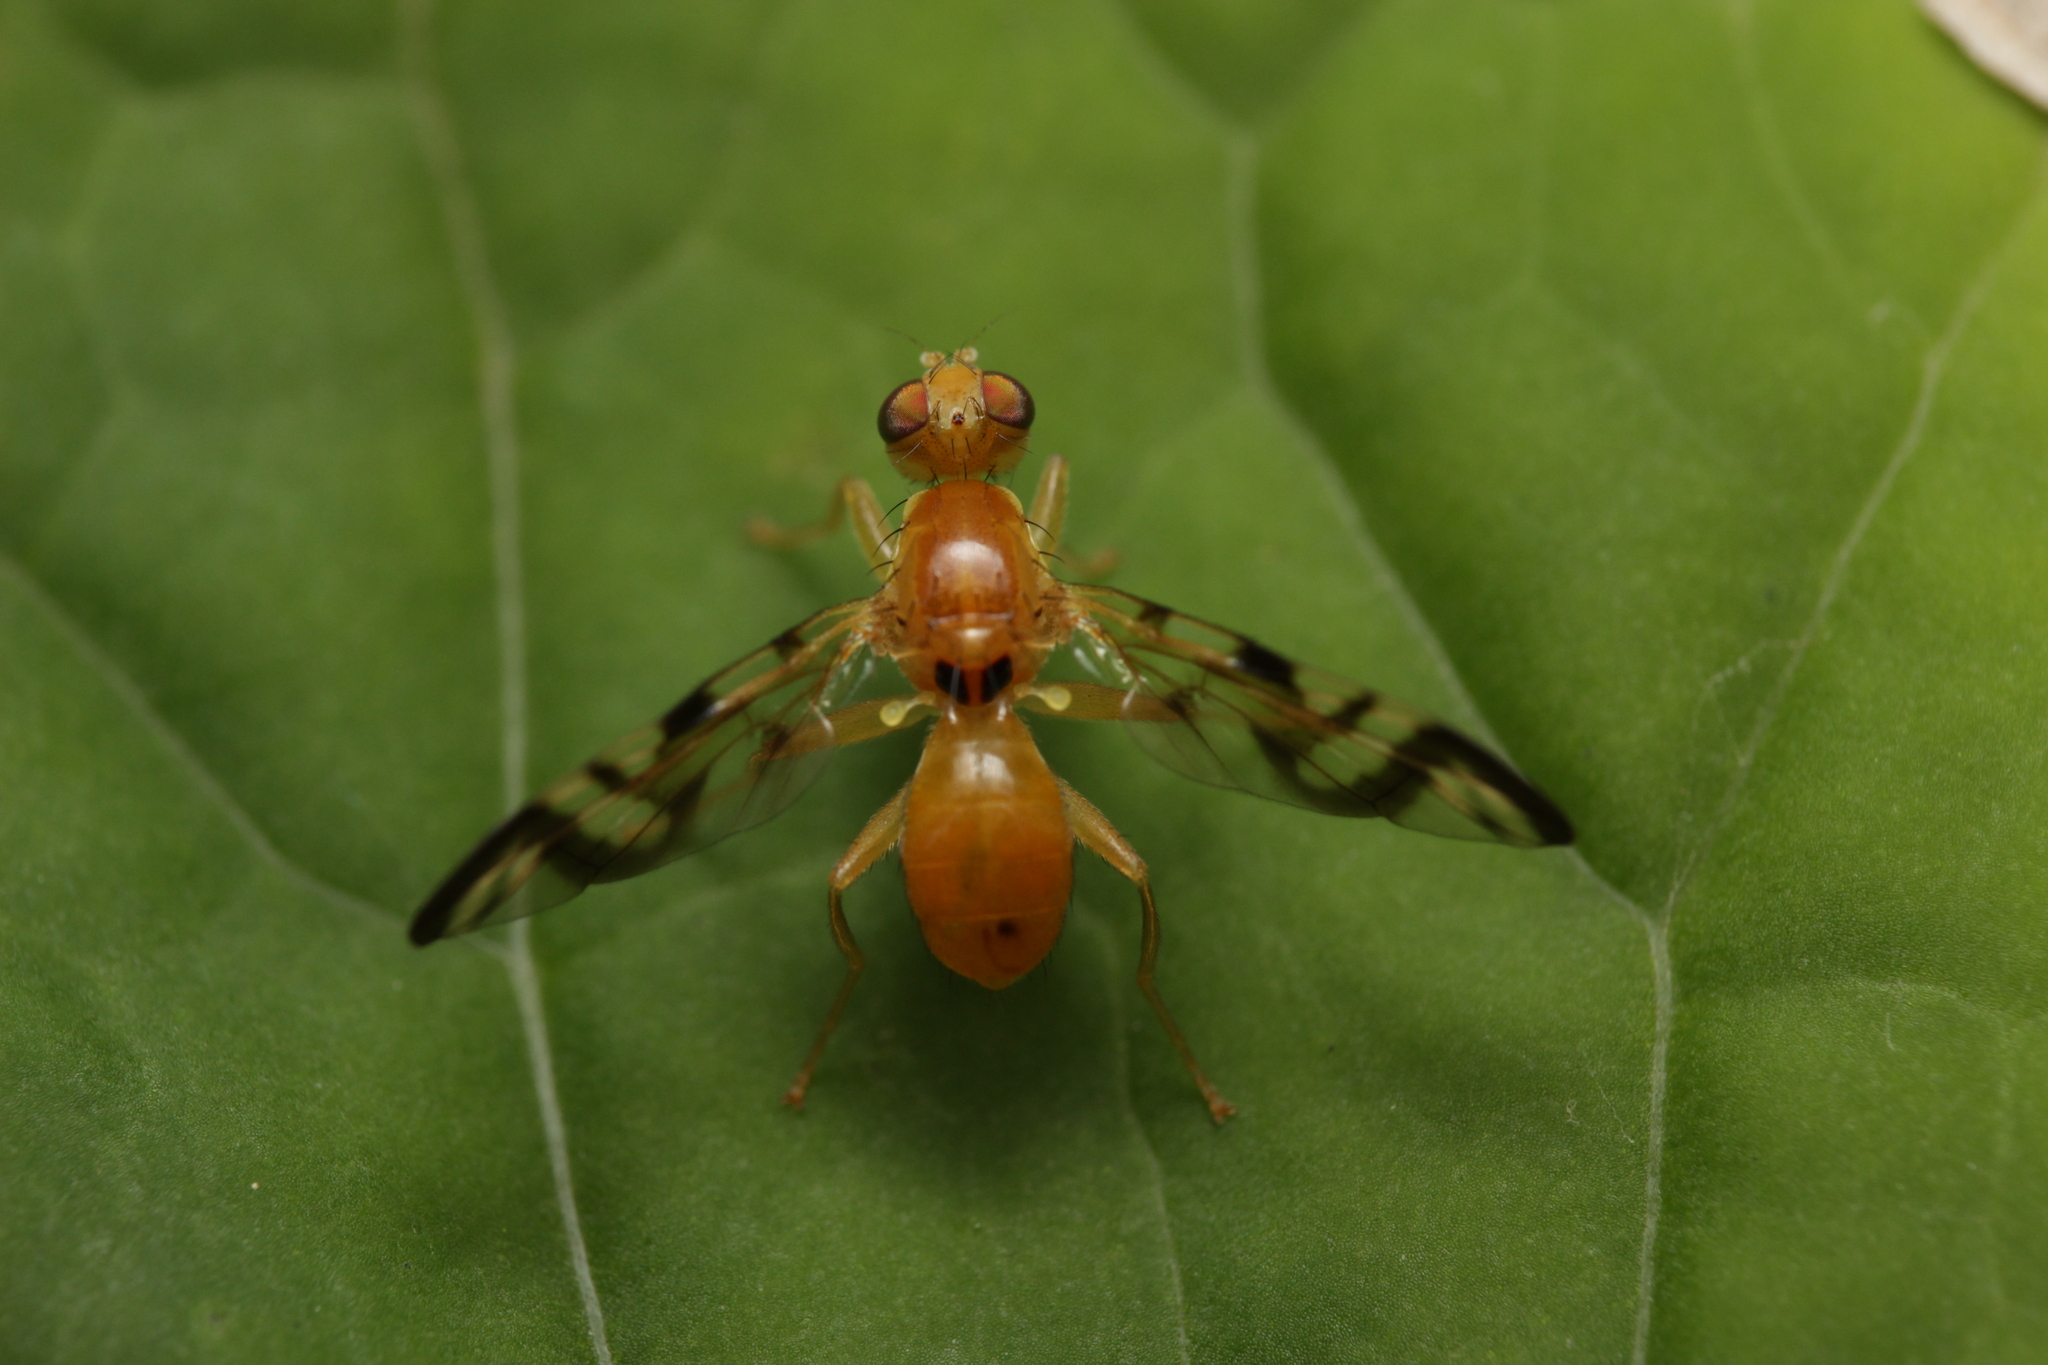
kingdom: Animalia
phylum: Arthropoda
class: Insecta
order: Diptera
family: Tephritidae
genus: Acidia
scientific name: Acidia cognata
